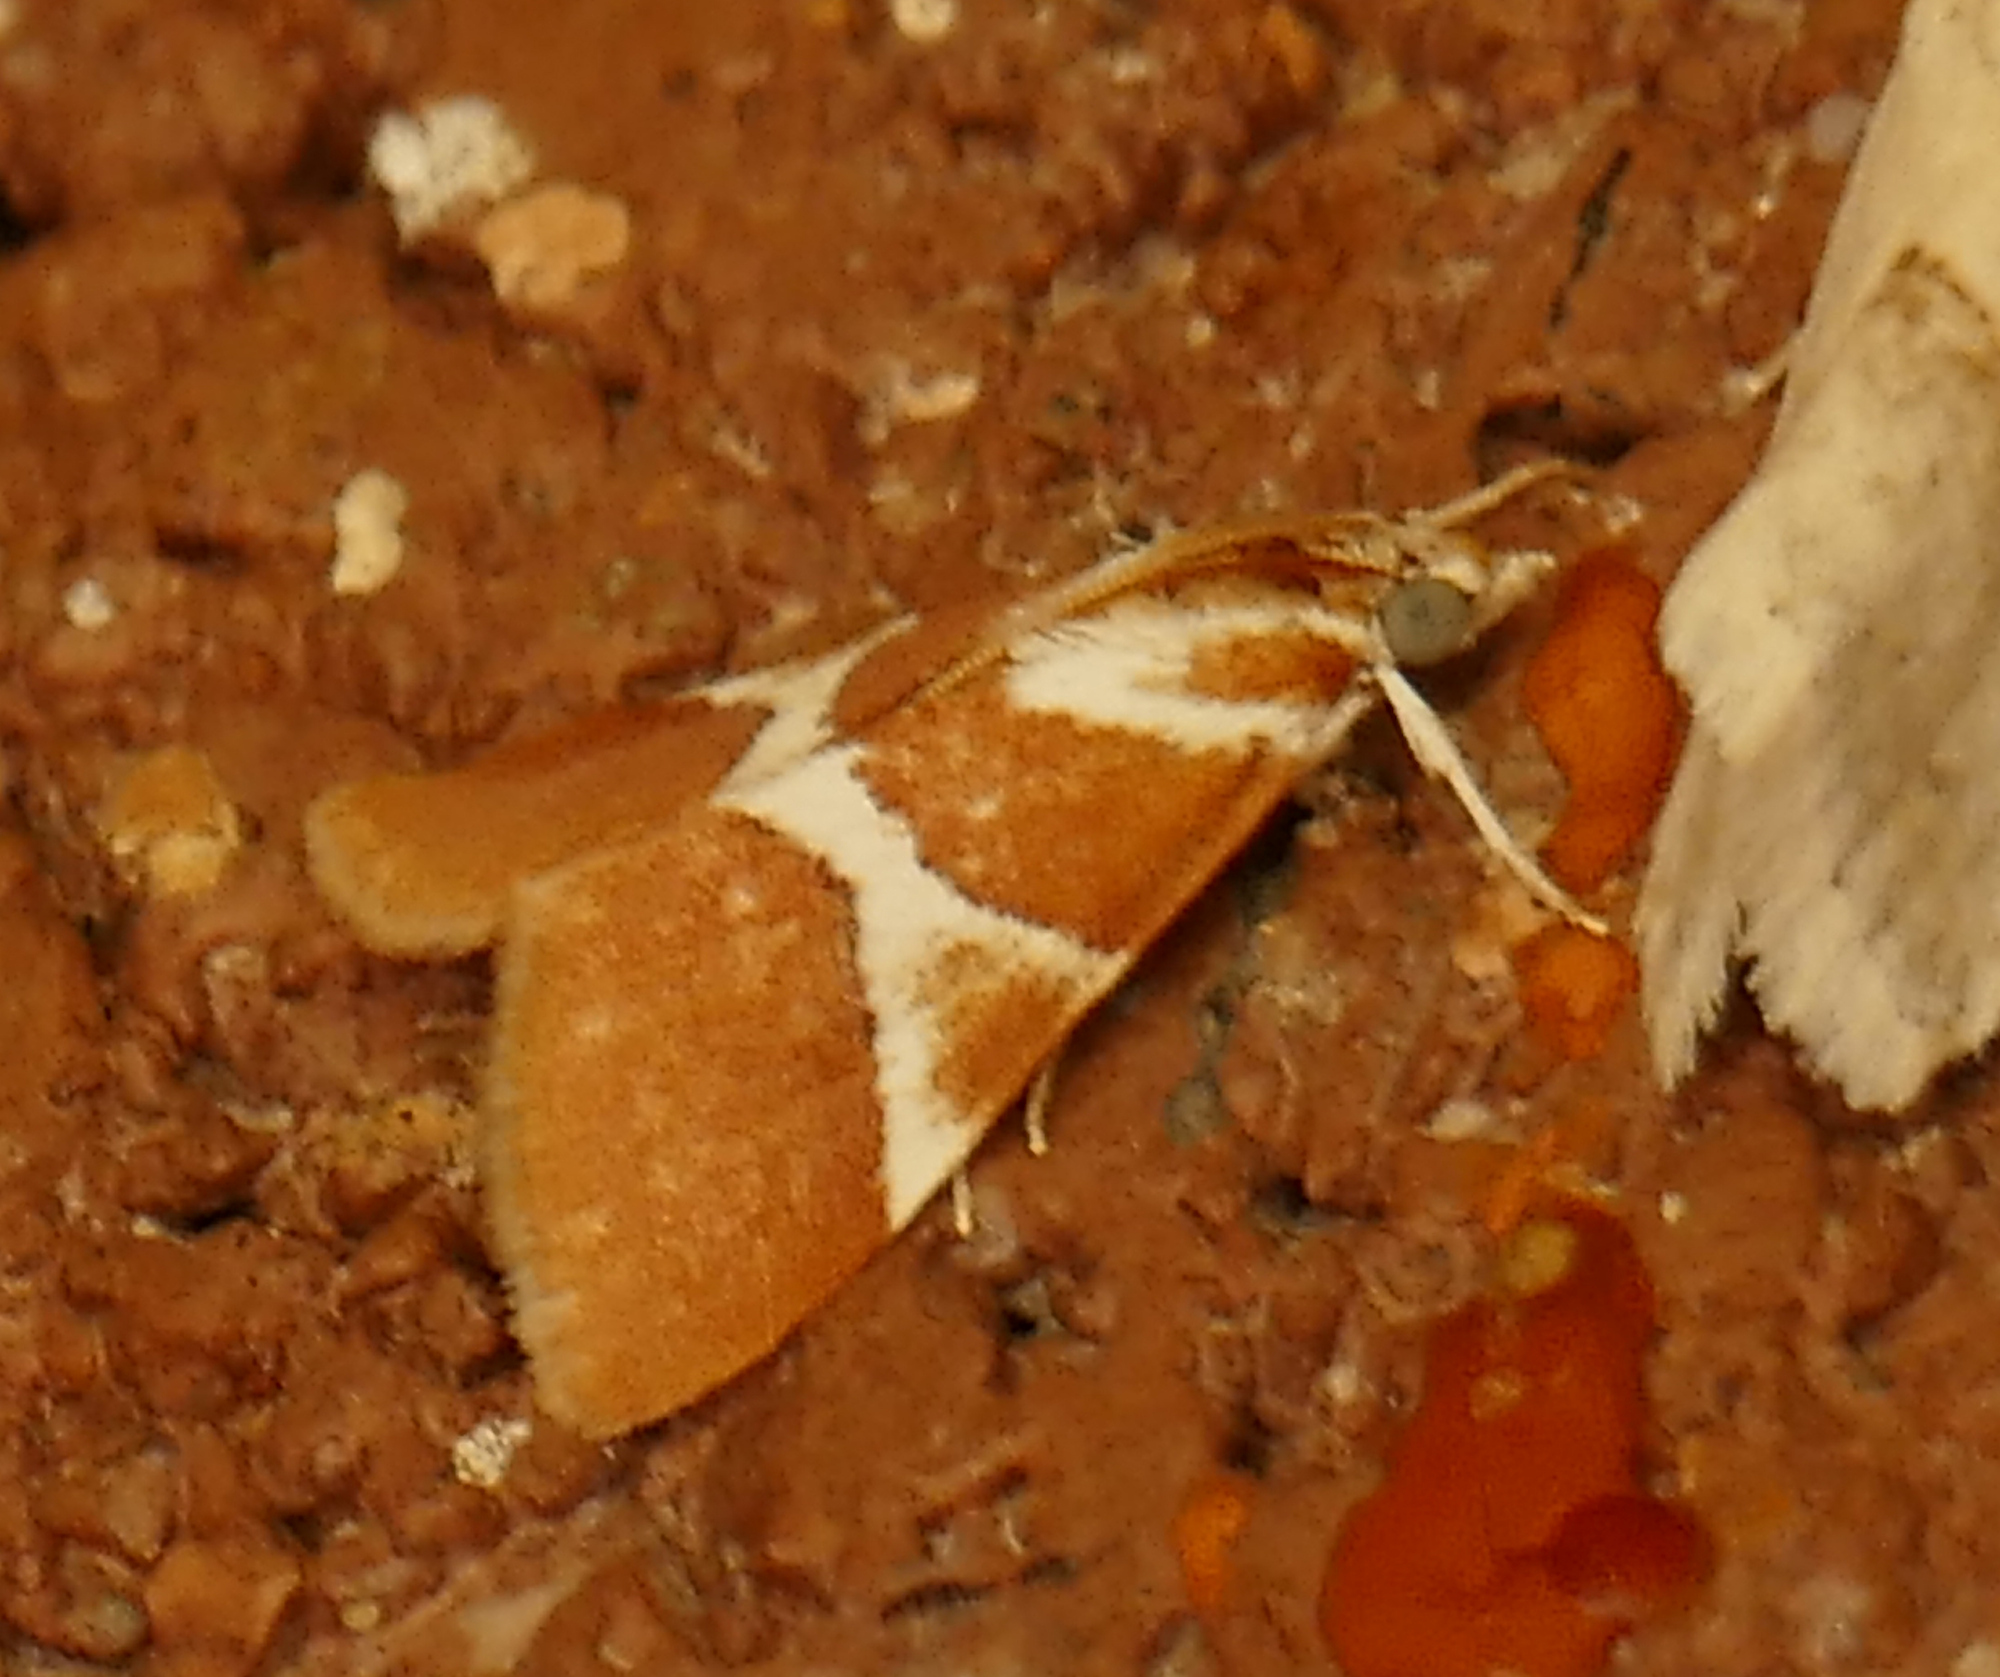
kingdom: Animalia
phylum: Arthropoda
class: Insecta
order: Lepidoptera
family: Crambidae
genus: Jativa
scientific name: Jativa castanealis
